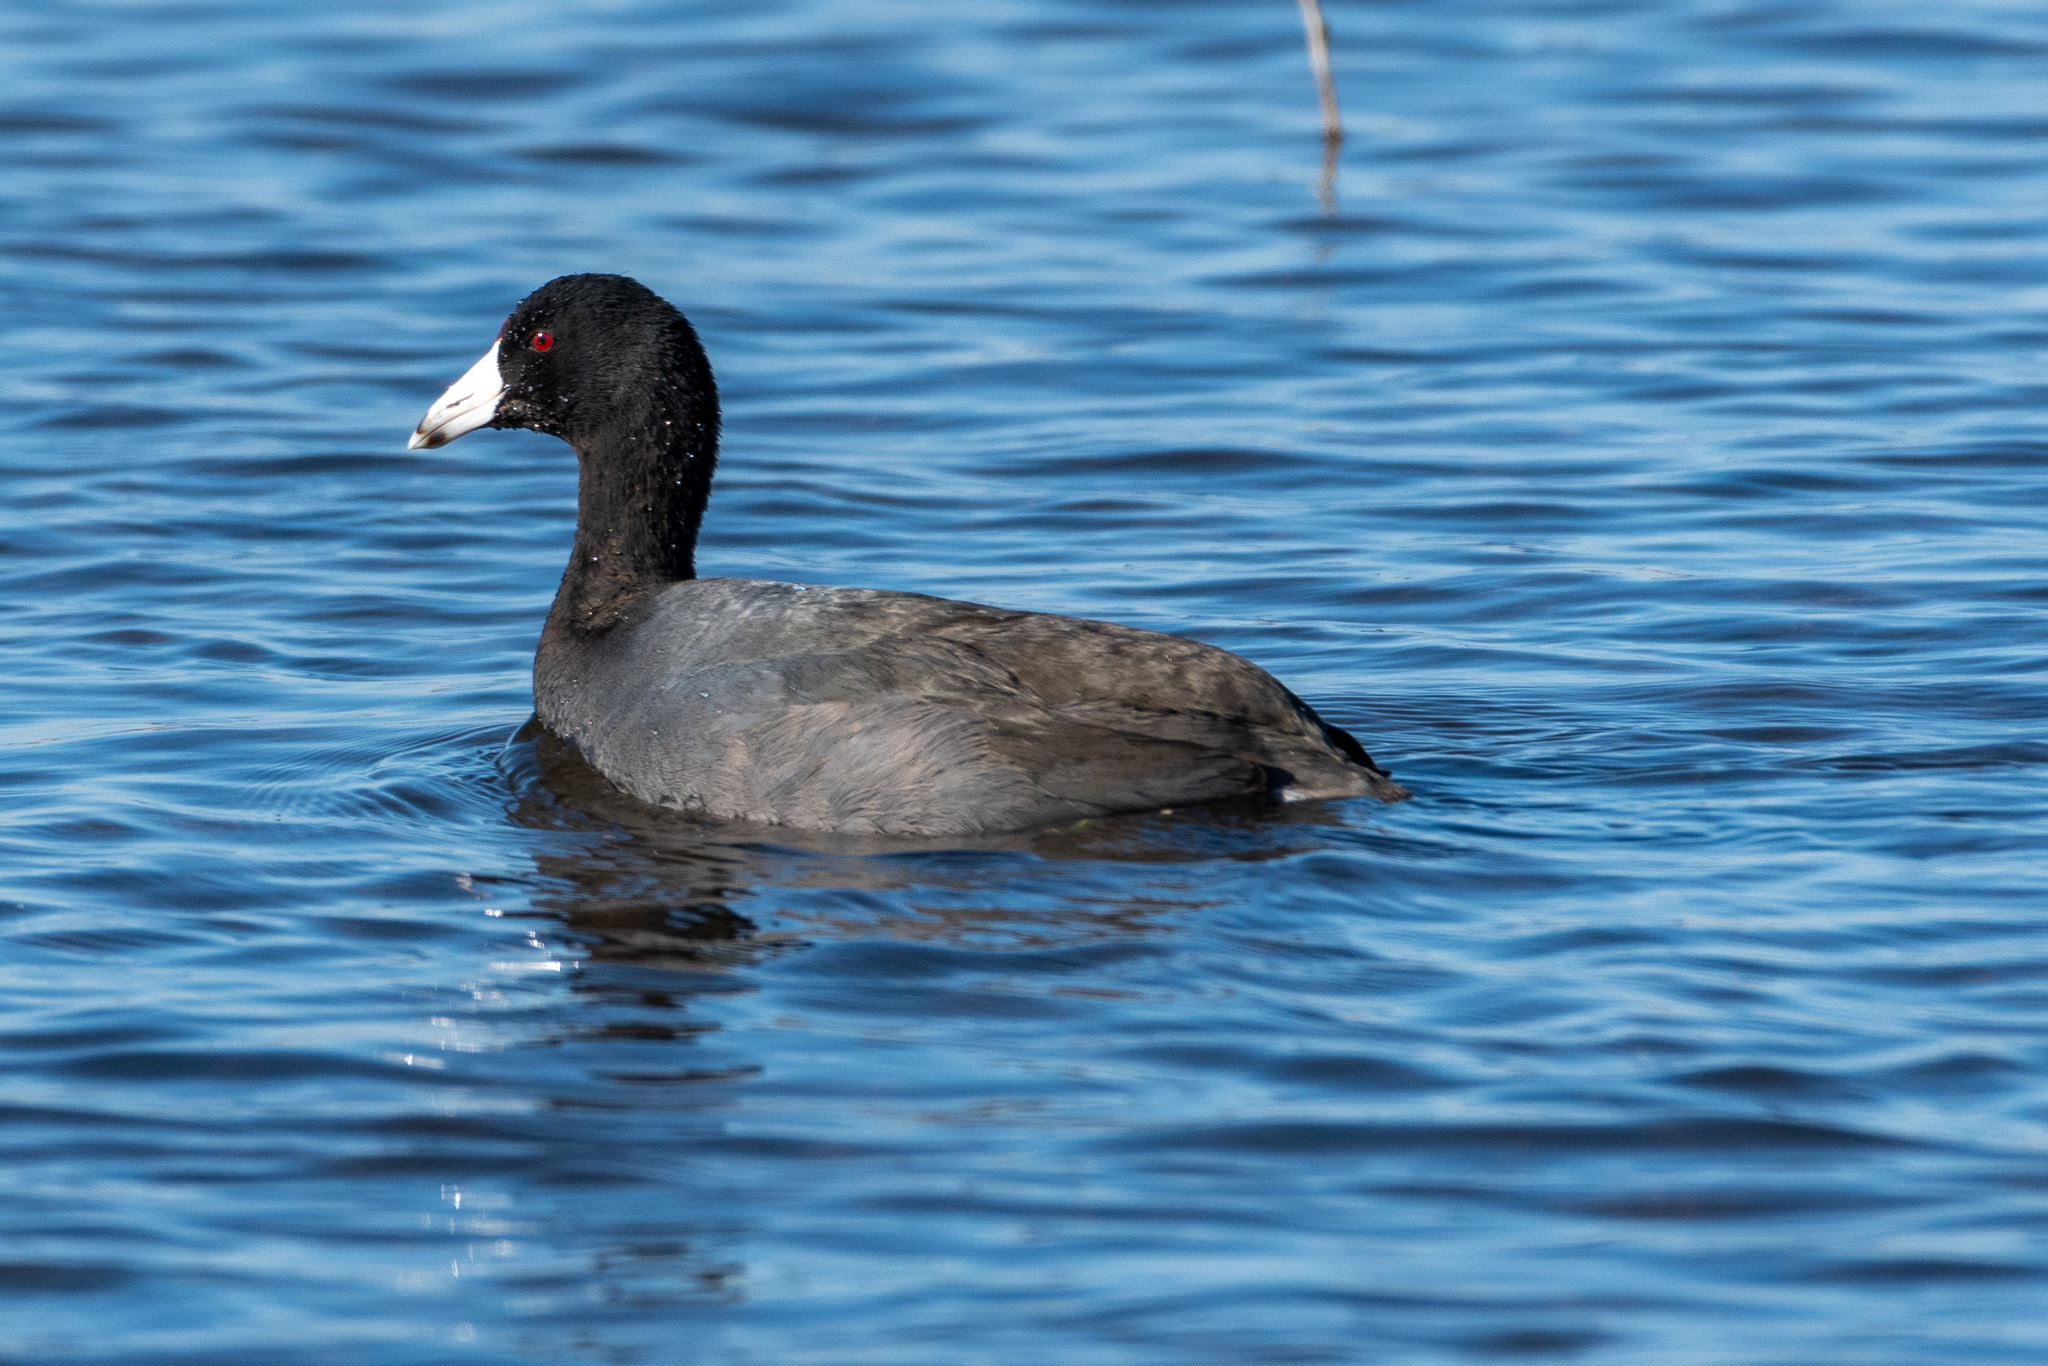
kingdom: Animalia
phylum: Chordata
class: Aves
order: Gruiformes
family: Rallidae
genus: Fulica
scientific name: Fulica americana
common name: American coot
